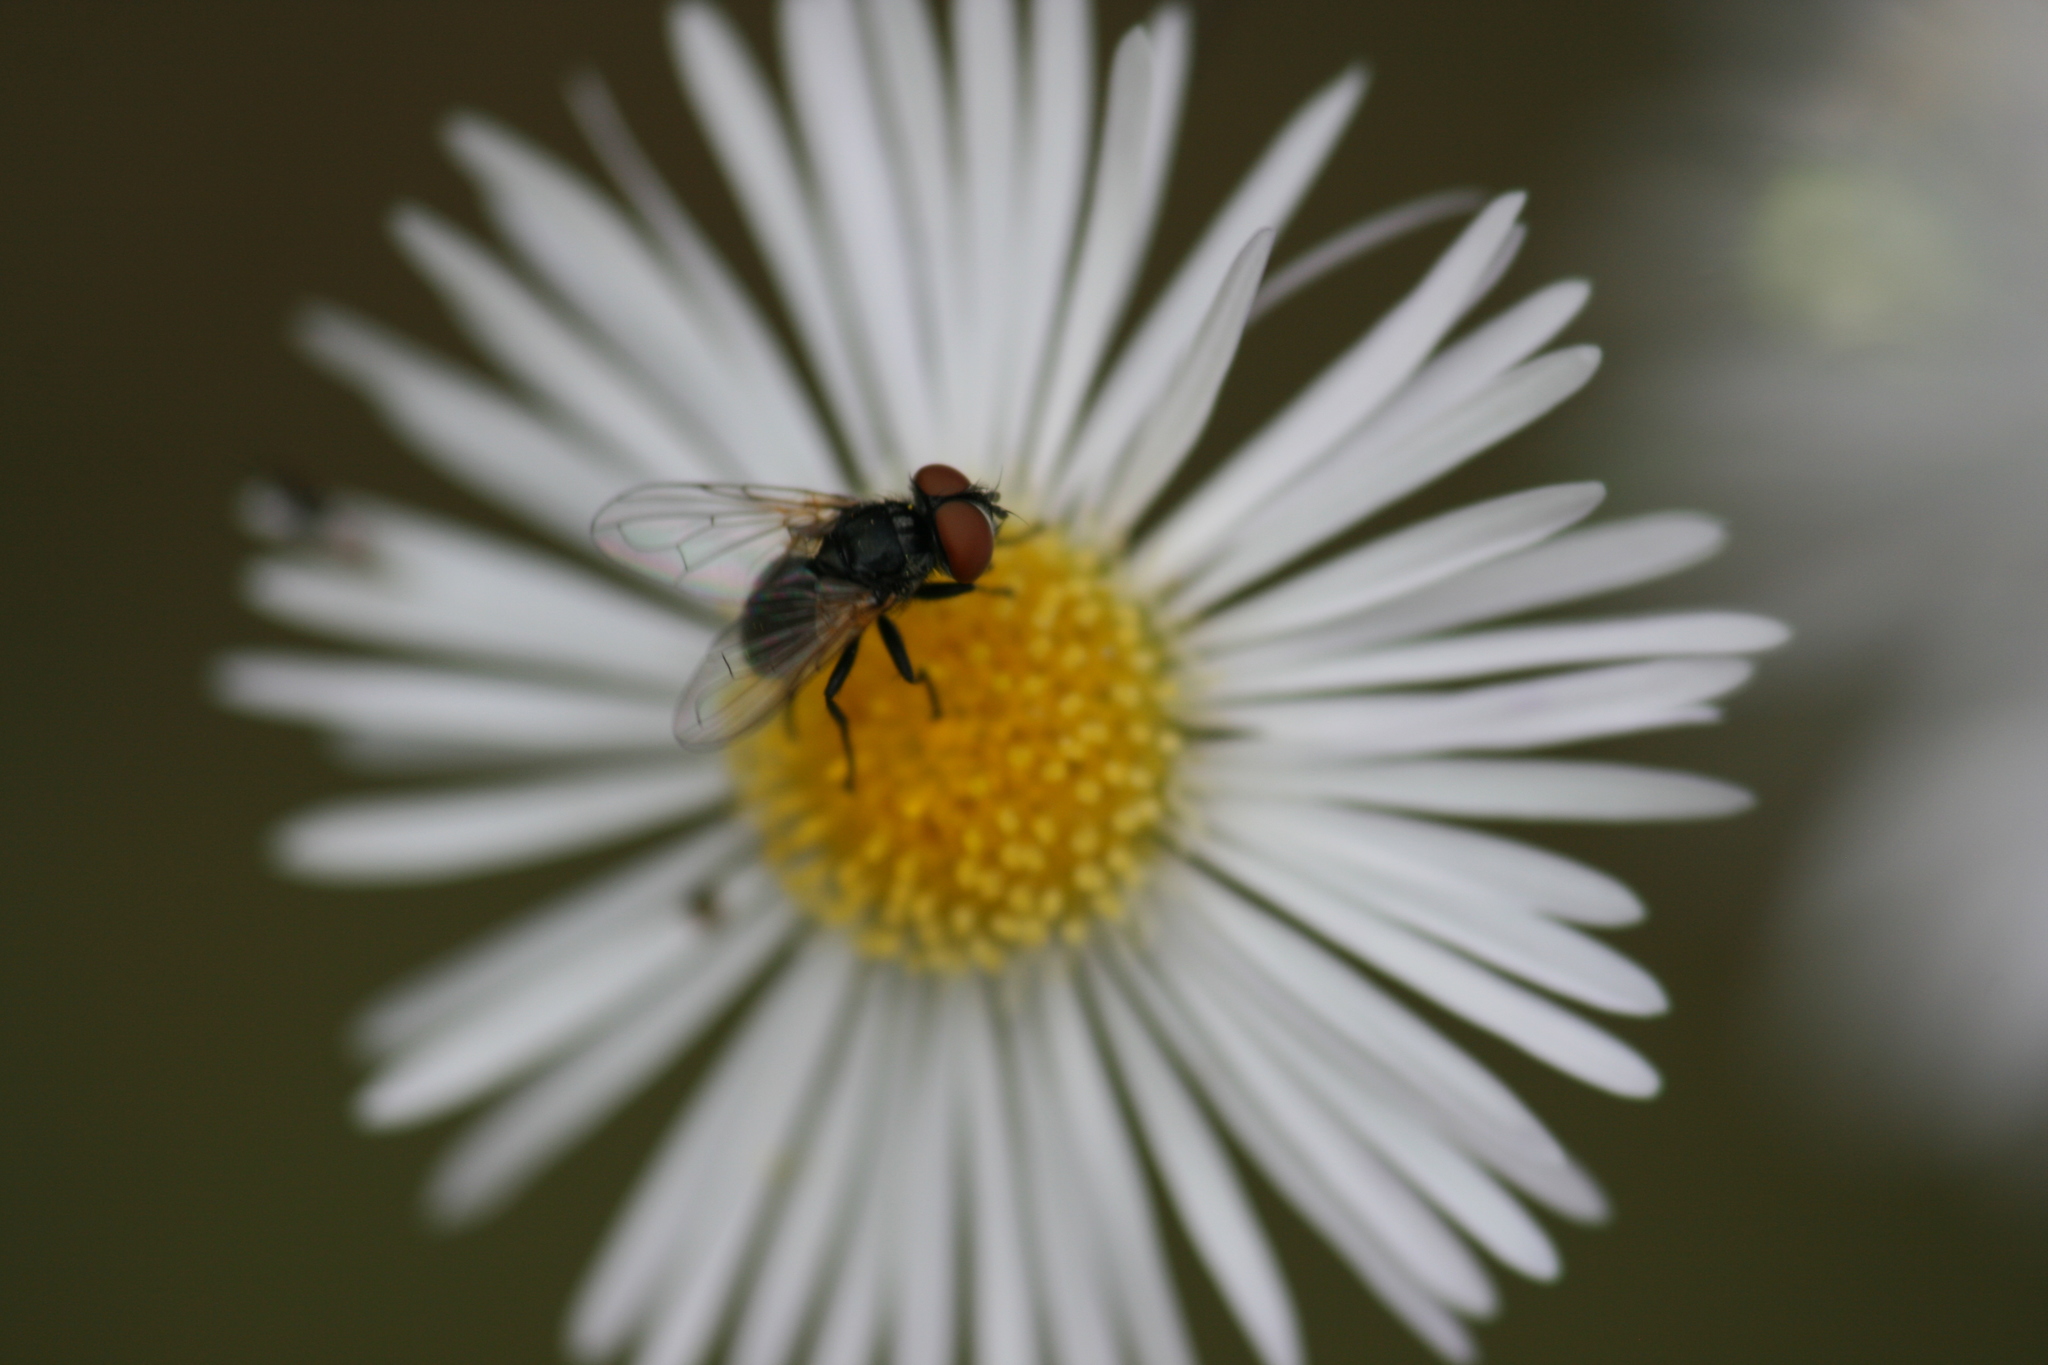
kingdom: Animalia
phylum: Arthropoda
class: Insecta
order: Diptera
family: Tachinidae
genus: Phasia
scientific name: Phasia obesa
